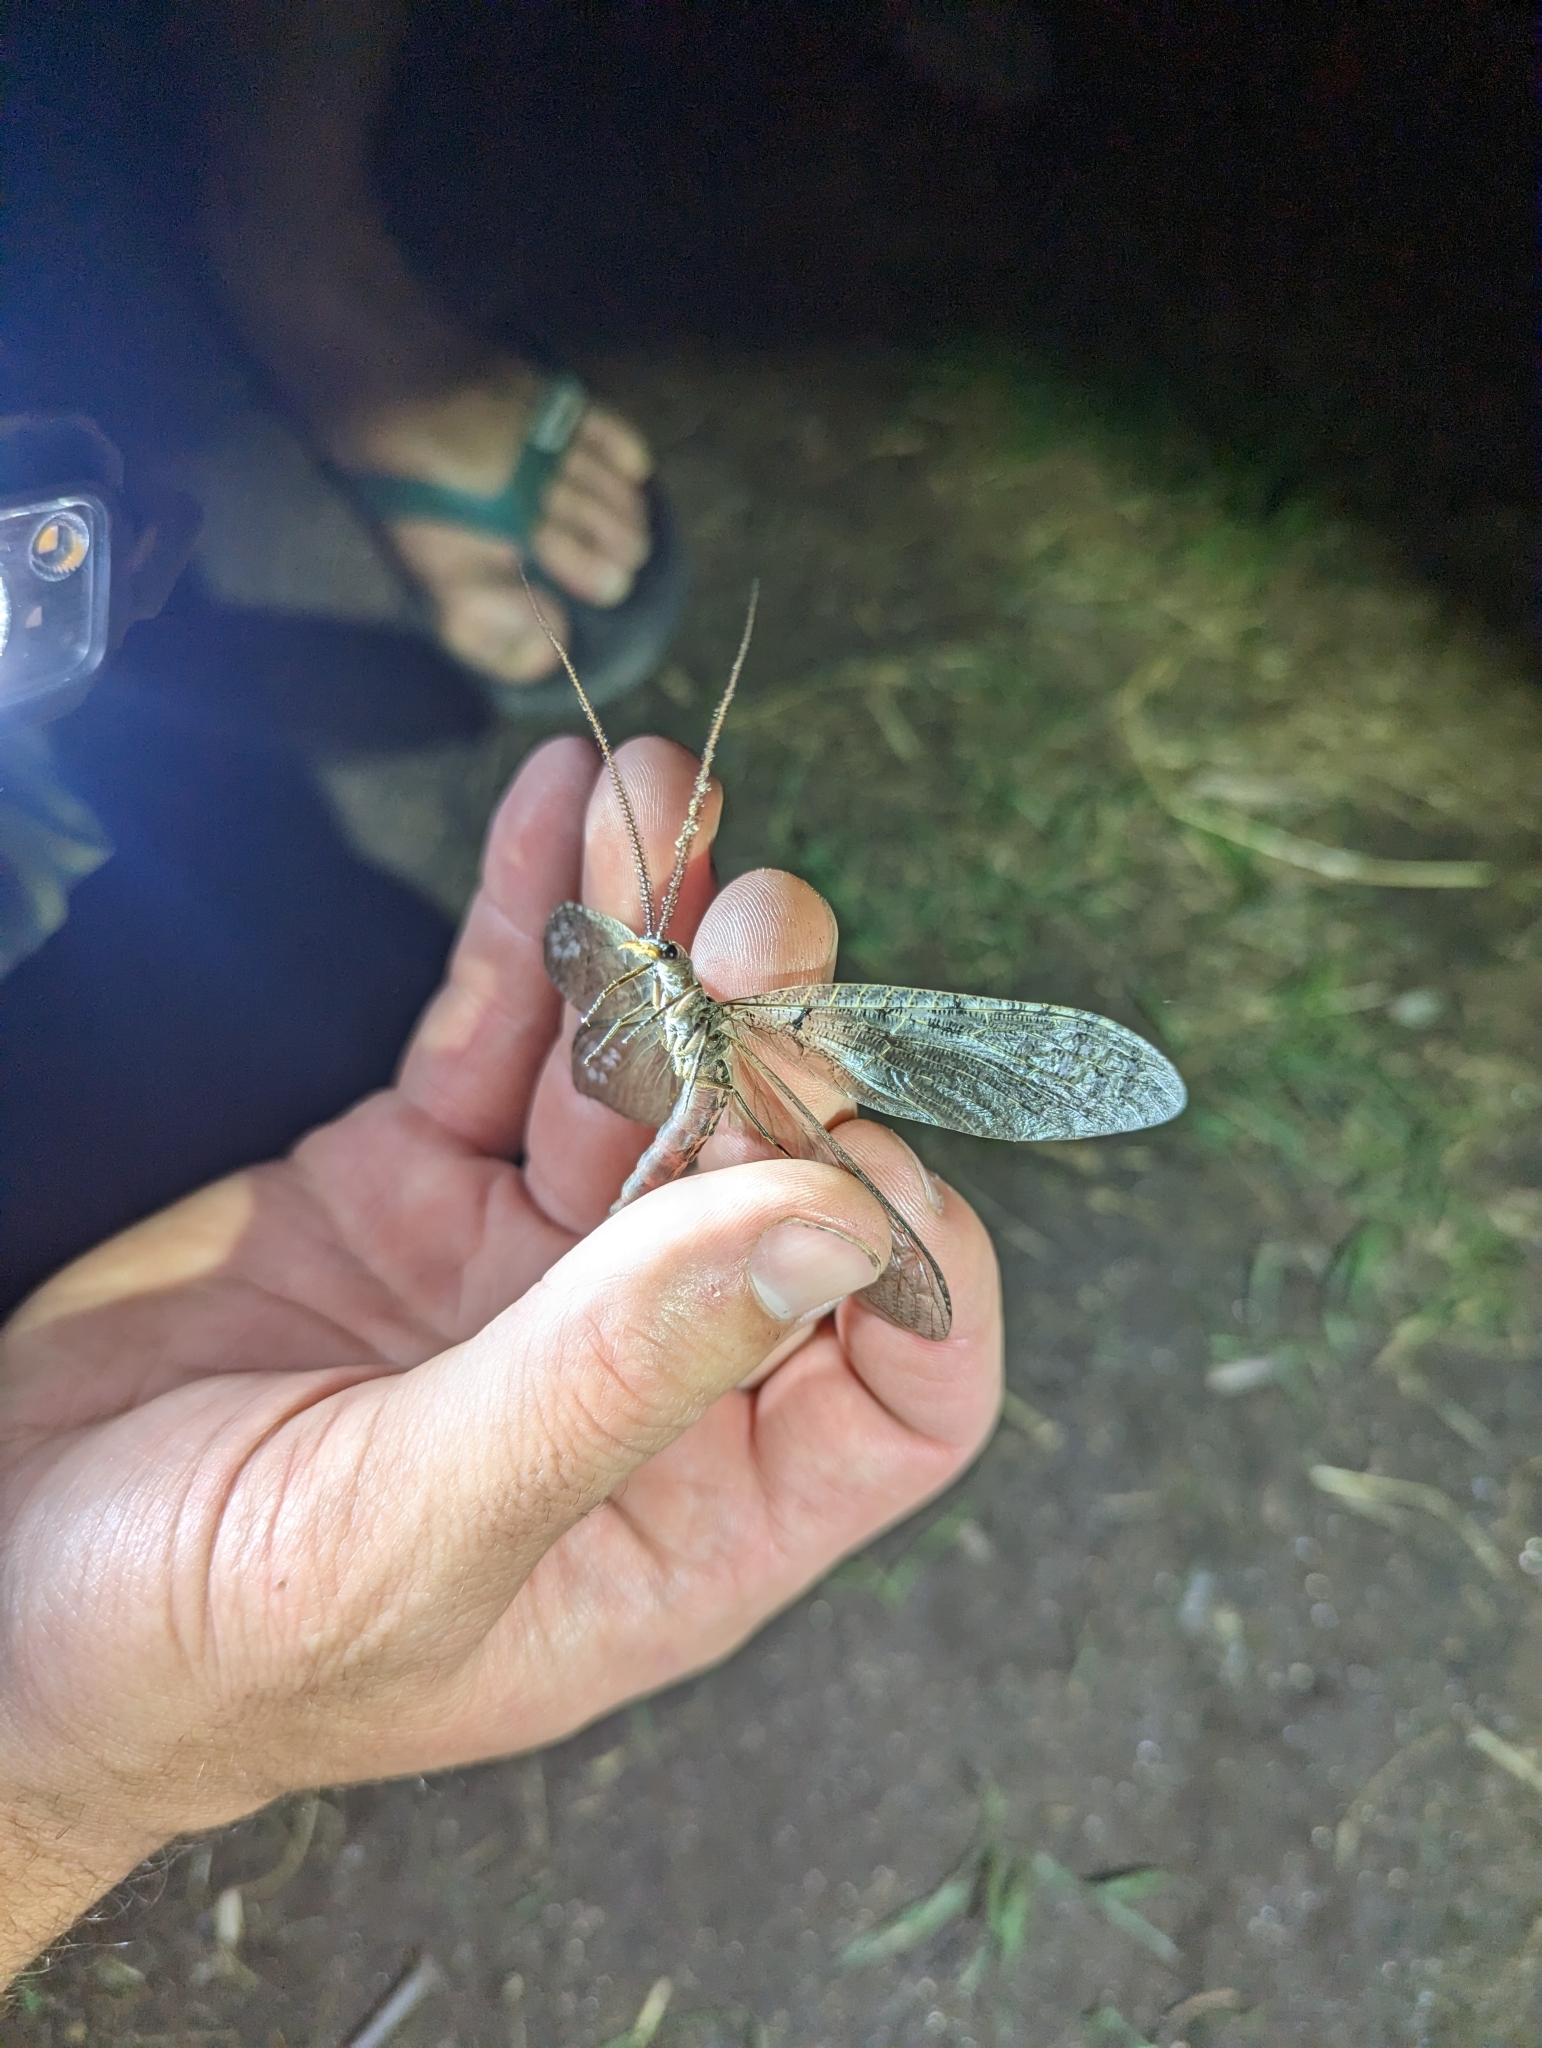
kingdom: Animalia
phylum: Arthropoda
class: Insecta
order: Megaloptera
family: Corydalidae
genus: Neohermes
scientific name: Neohermes californicus
